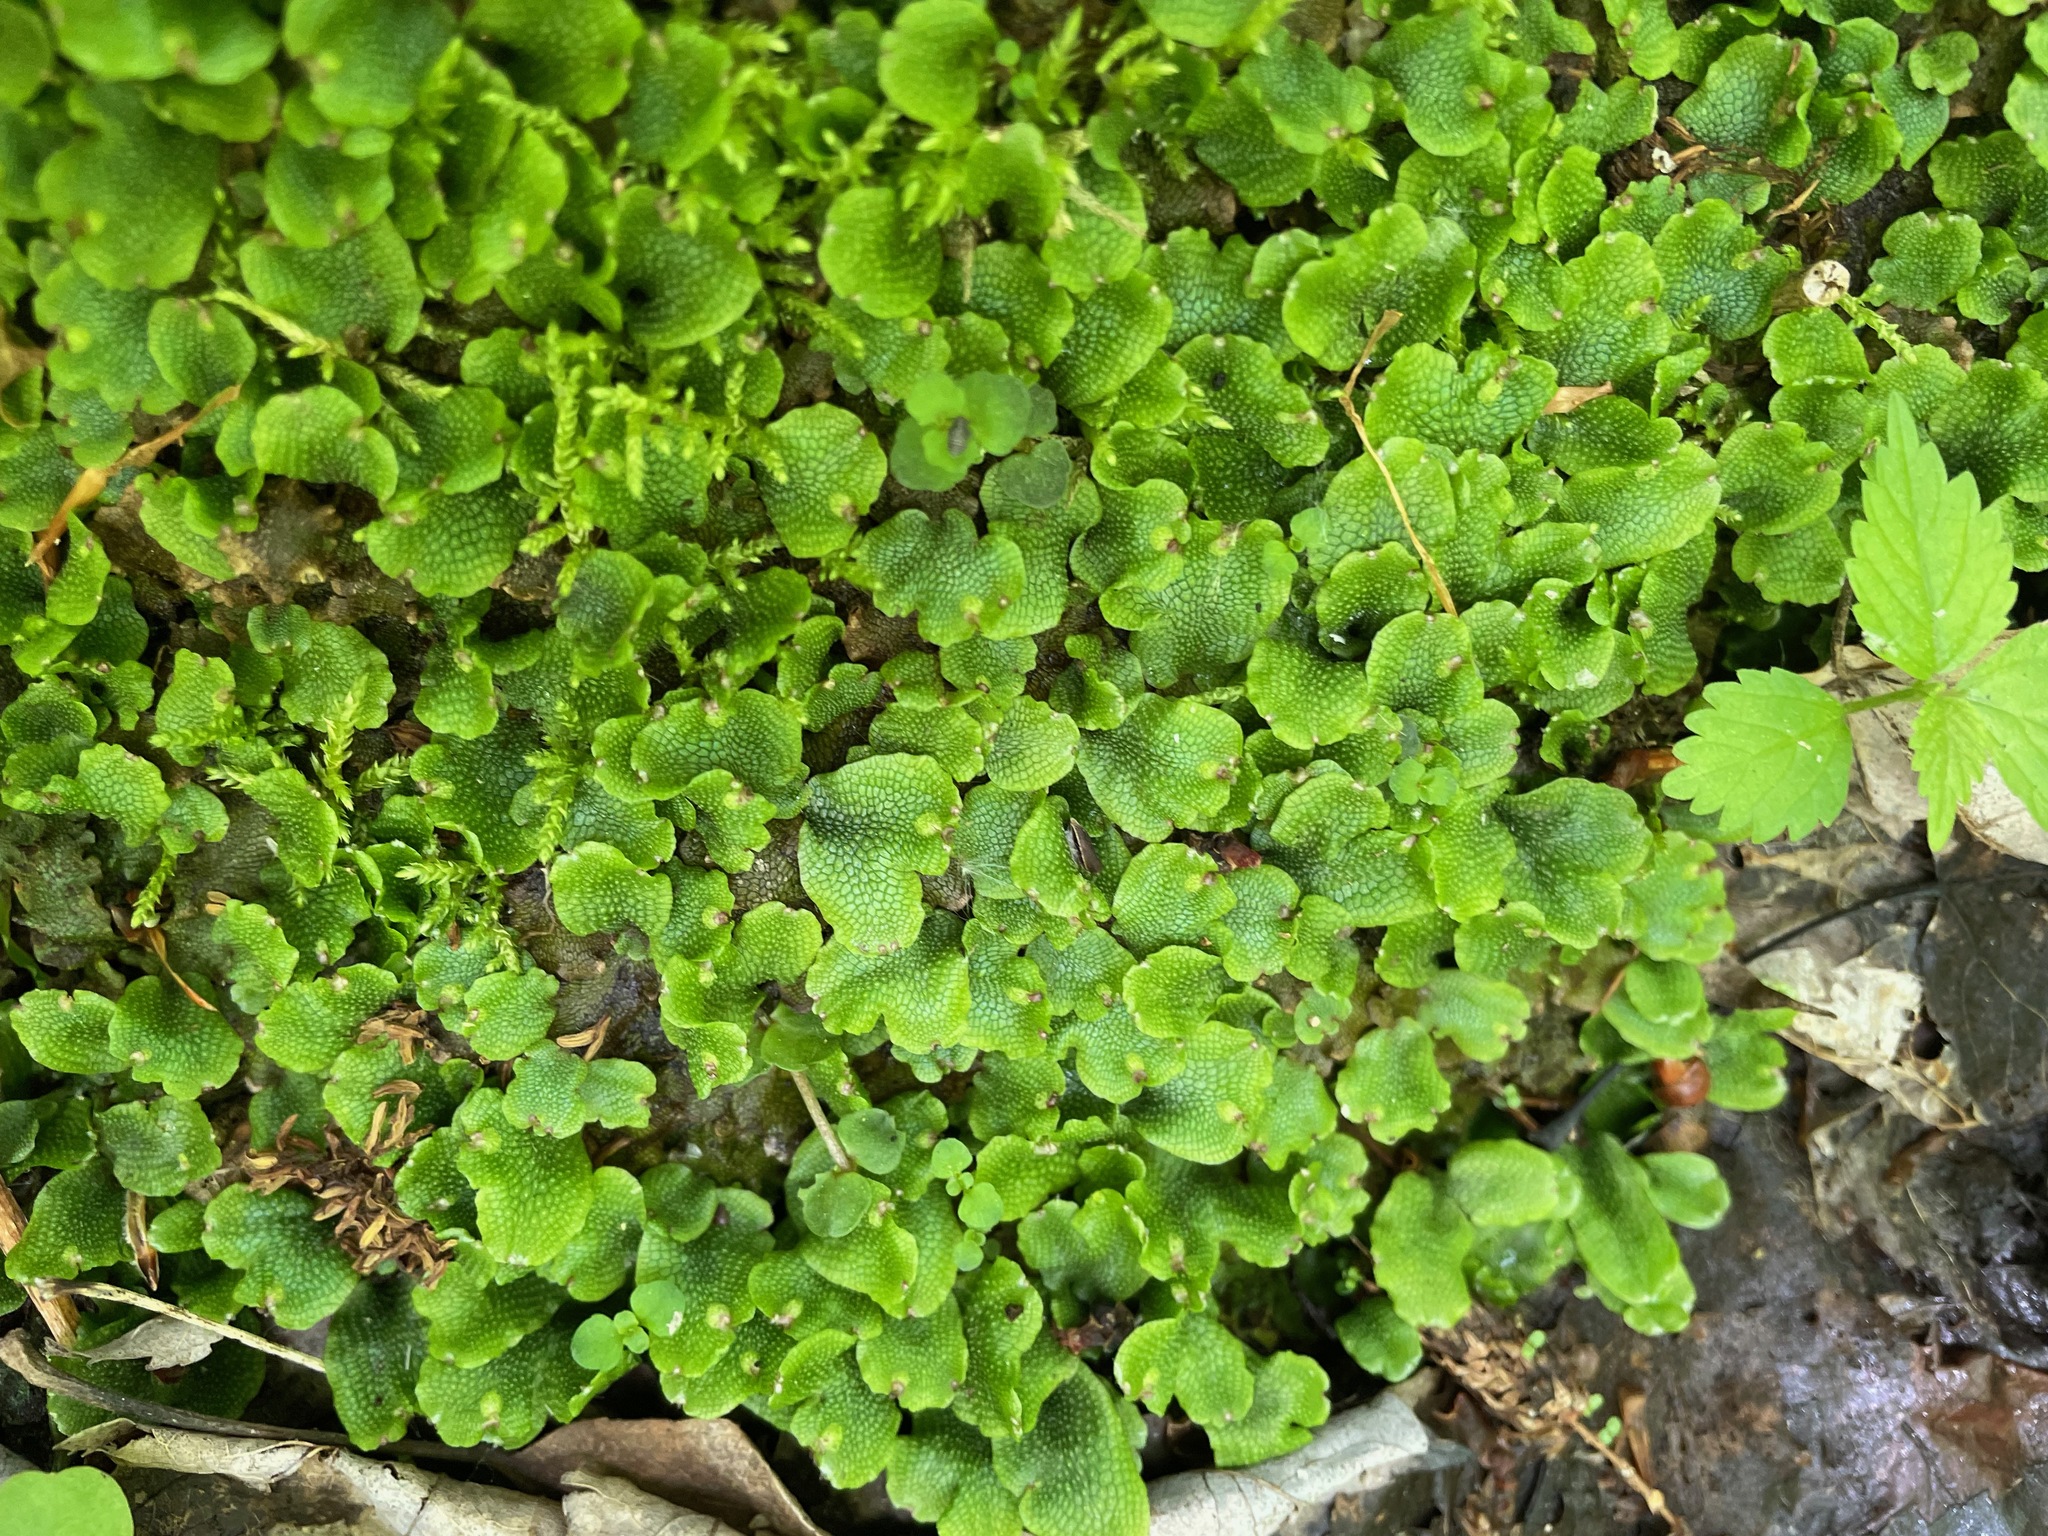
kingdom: Plantae
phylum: Marchantiophyta
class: Marchantiopsida
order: Marchantiales
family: Conocephalaceae
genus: Conocephalum
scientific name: Conocephalum salebrosum
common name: Cat-tongue liverwort
